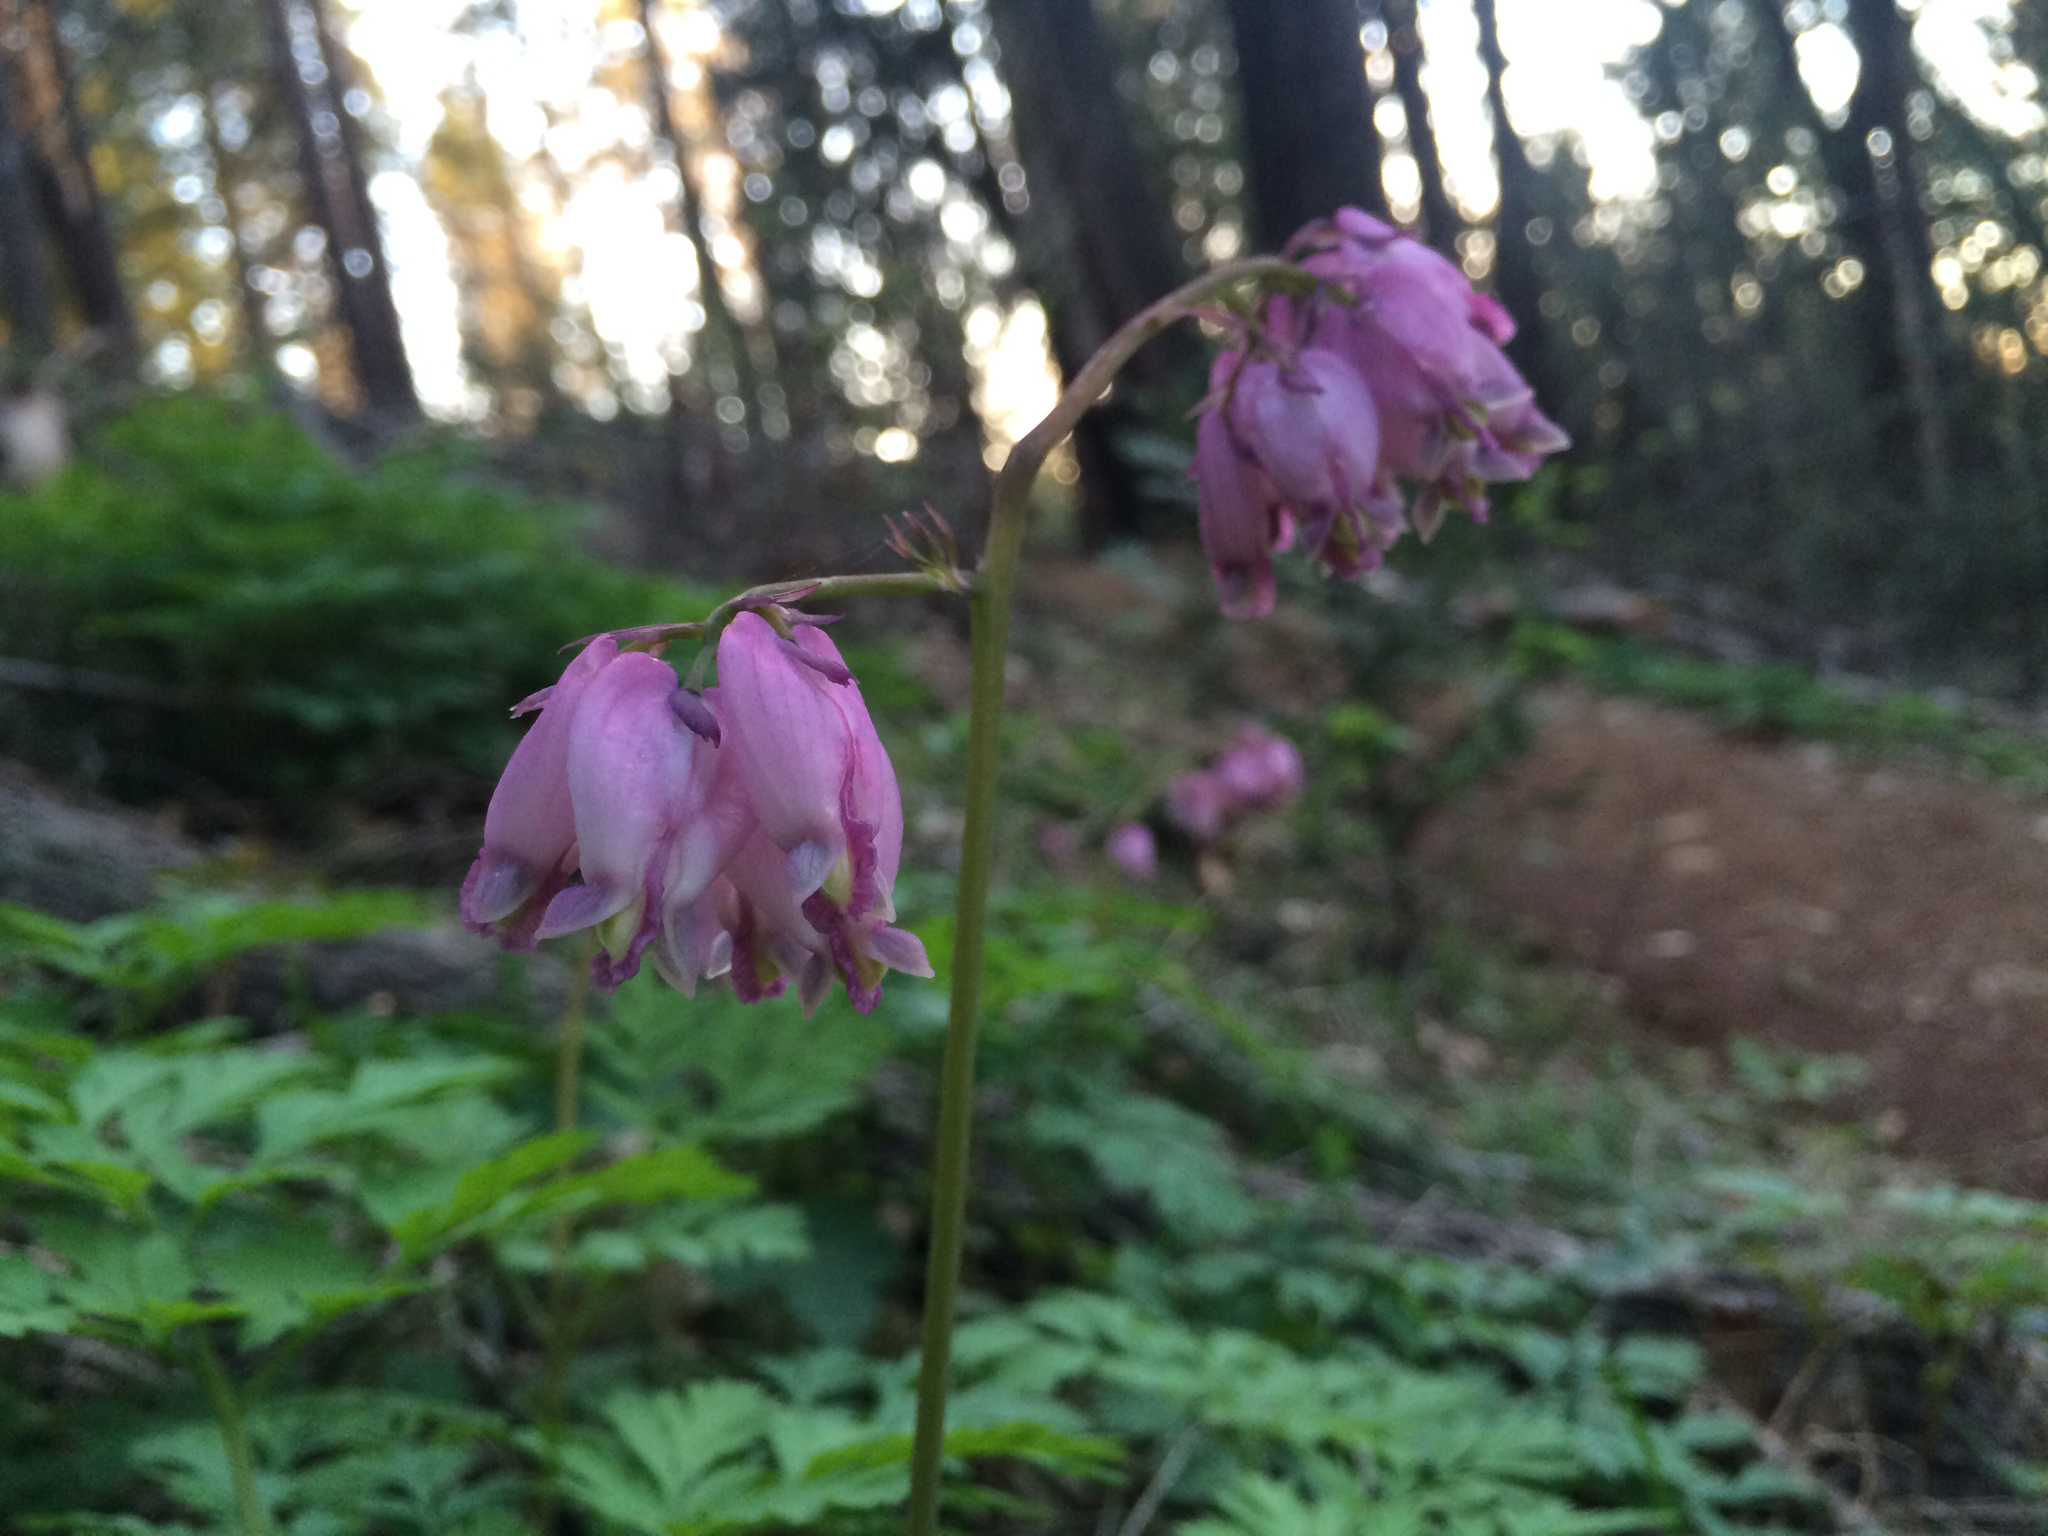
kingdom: Plantae
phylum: Tracheophyta
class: Magnoliopsida
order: Ranunculales
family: Papaveraceae
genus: Dicentra
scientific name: Dicentra formosa
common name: Bleeding-heart
